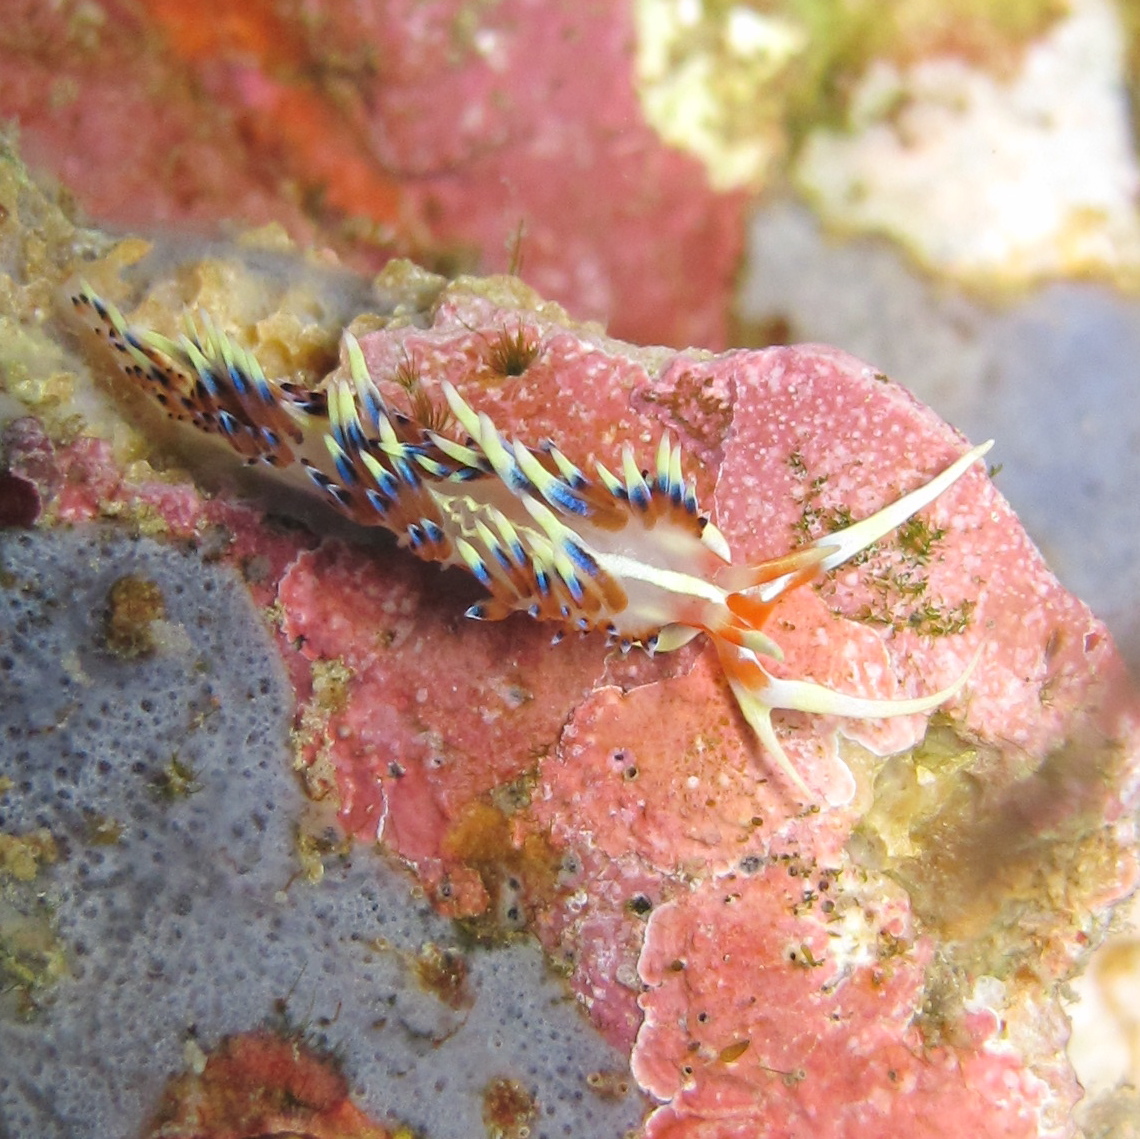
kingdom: Animalia
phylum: Mollusca
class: Gastropoda
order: Nudibranchia
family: Facelinidae
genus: Caloria
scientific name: Caloria indica
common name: Sea slug
